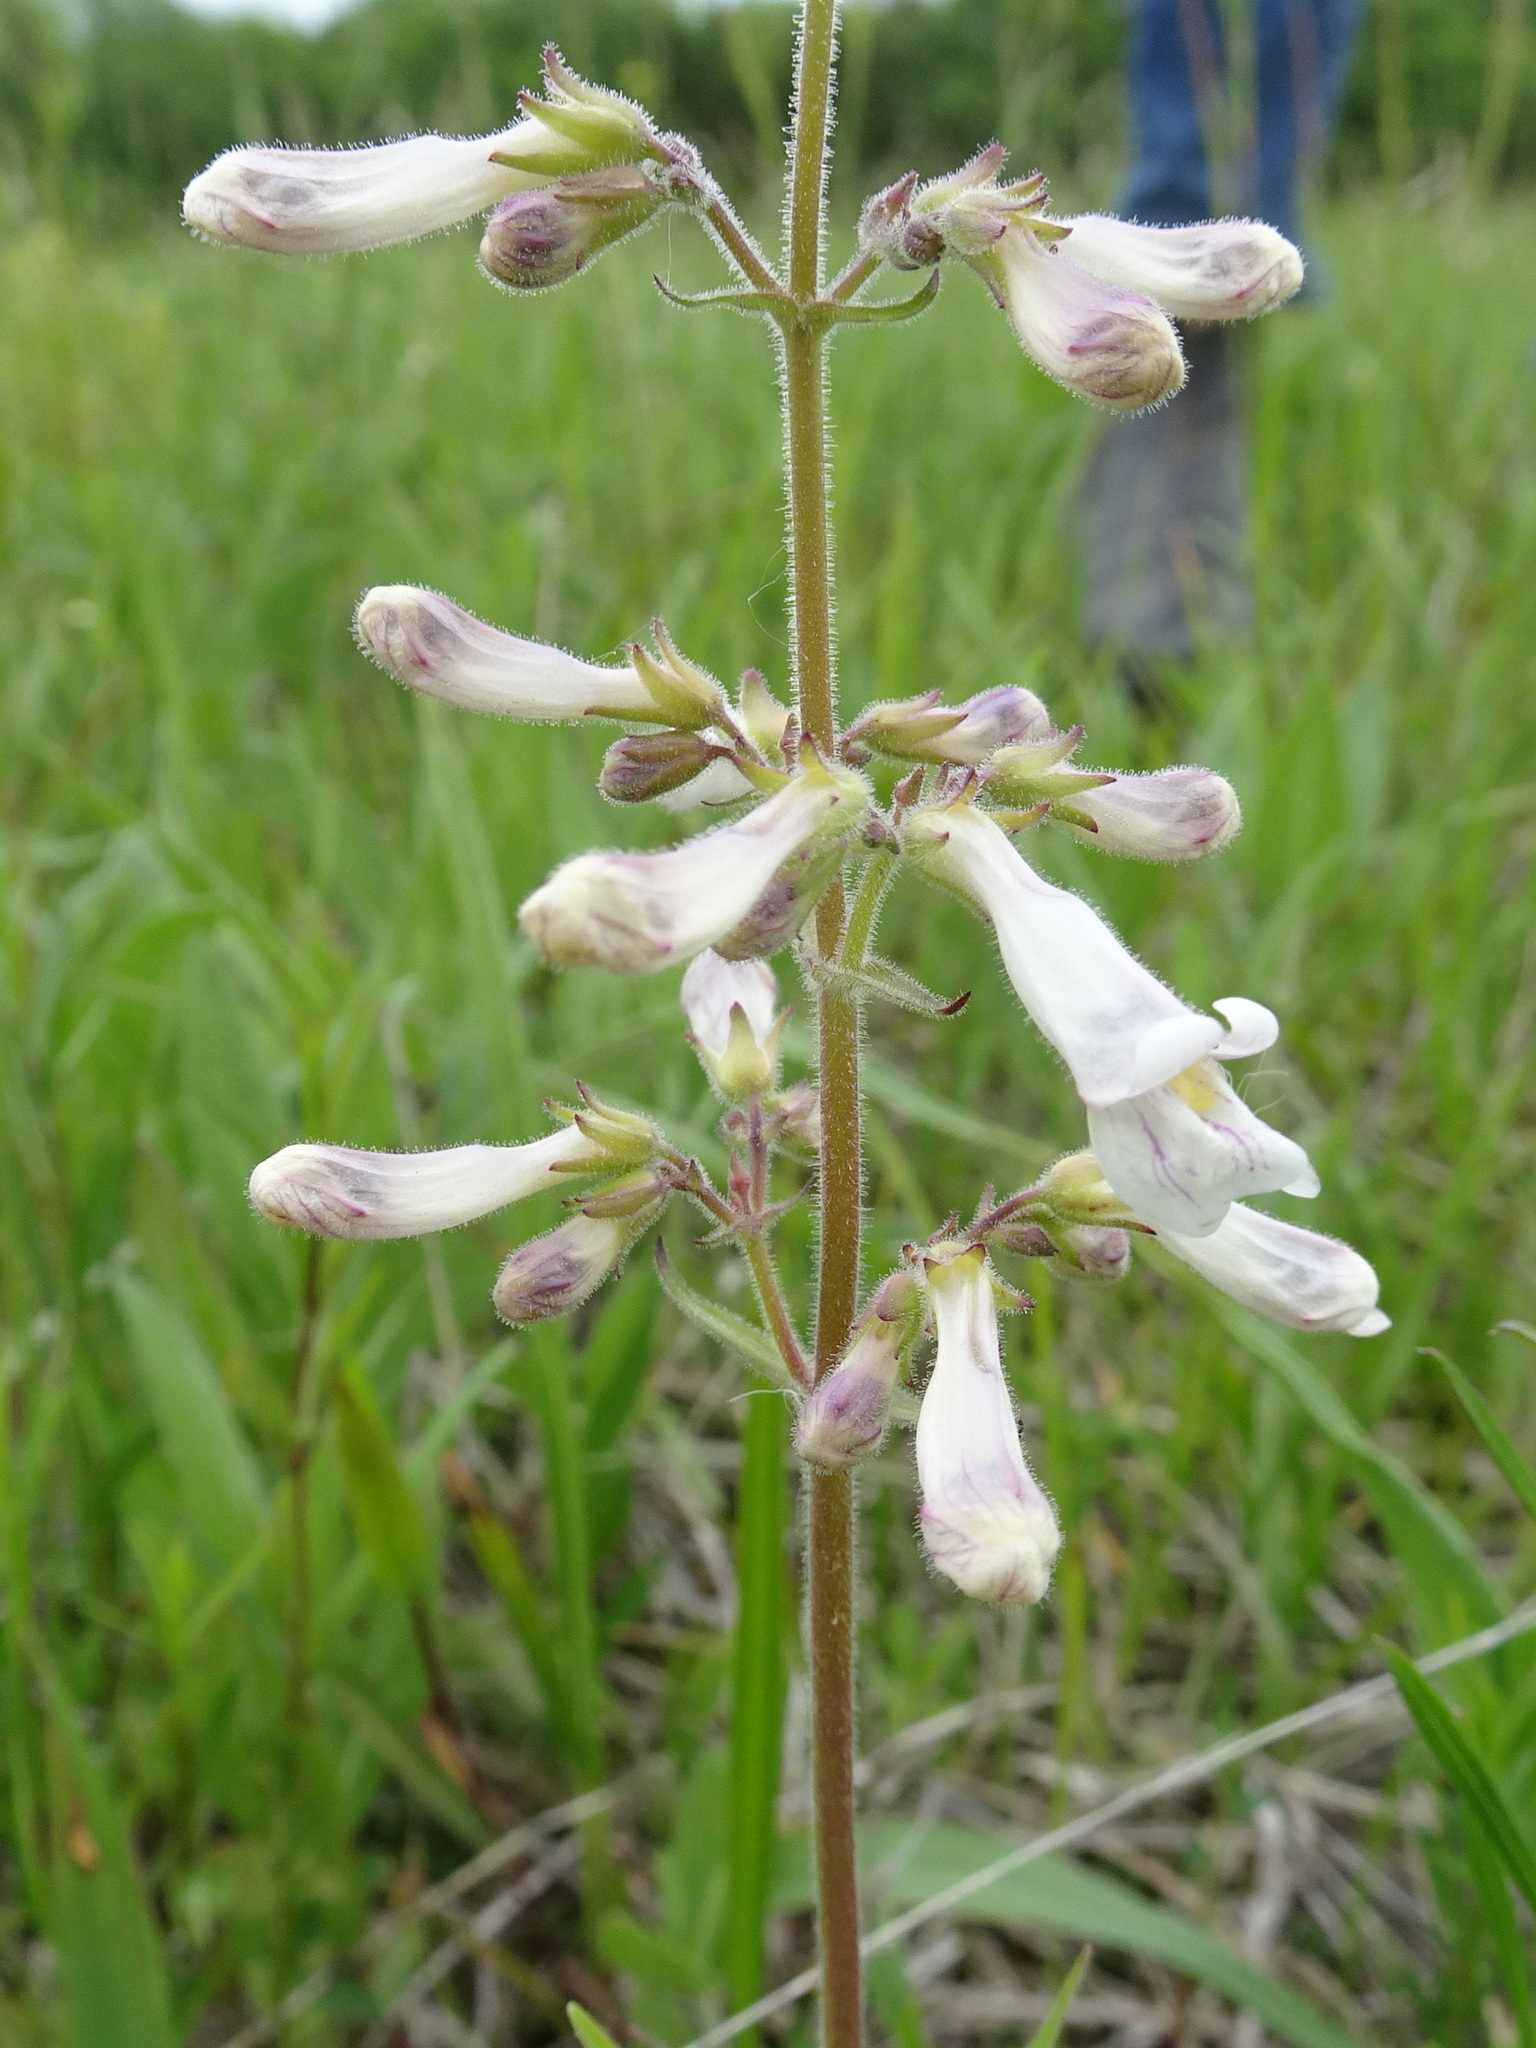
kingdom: Plantae
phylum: Tracheophyta
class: Magnoliopsida
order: Lamiales
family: Plantaginaceae
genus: Penstemon
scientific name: Penstemon pallidus
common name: Pale beardtongue
